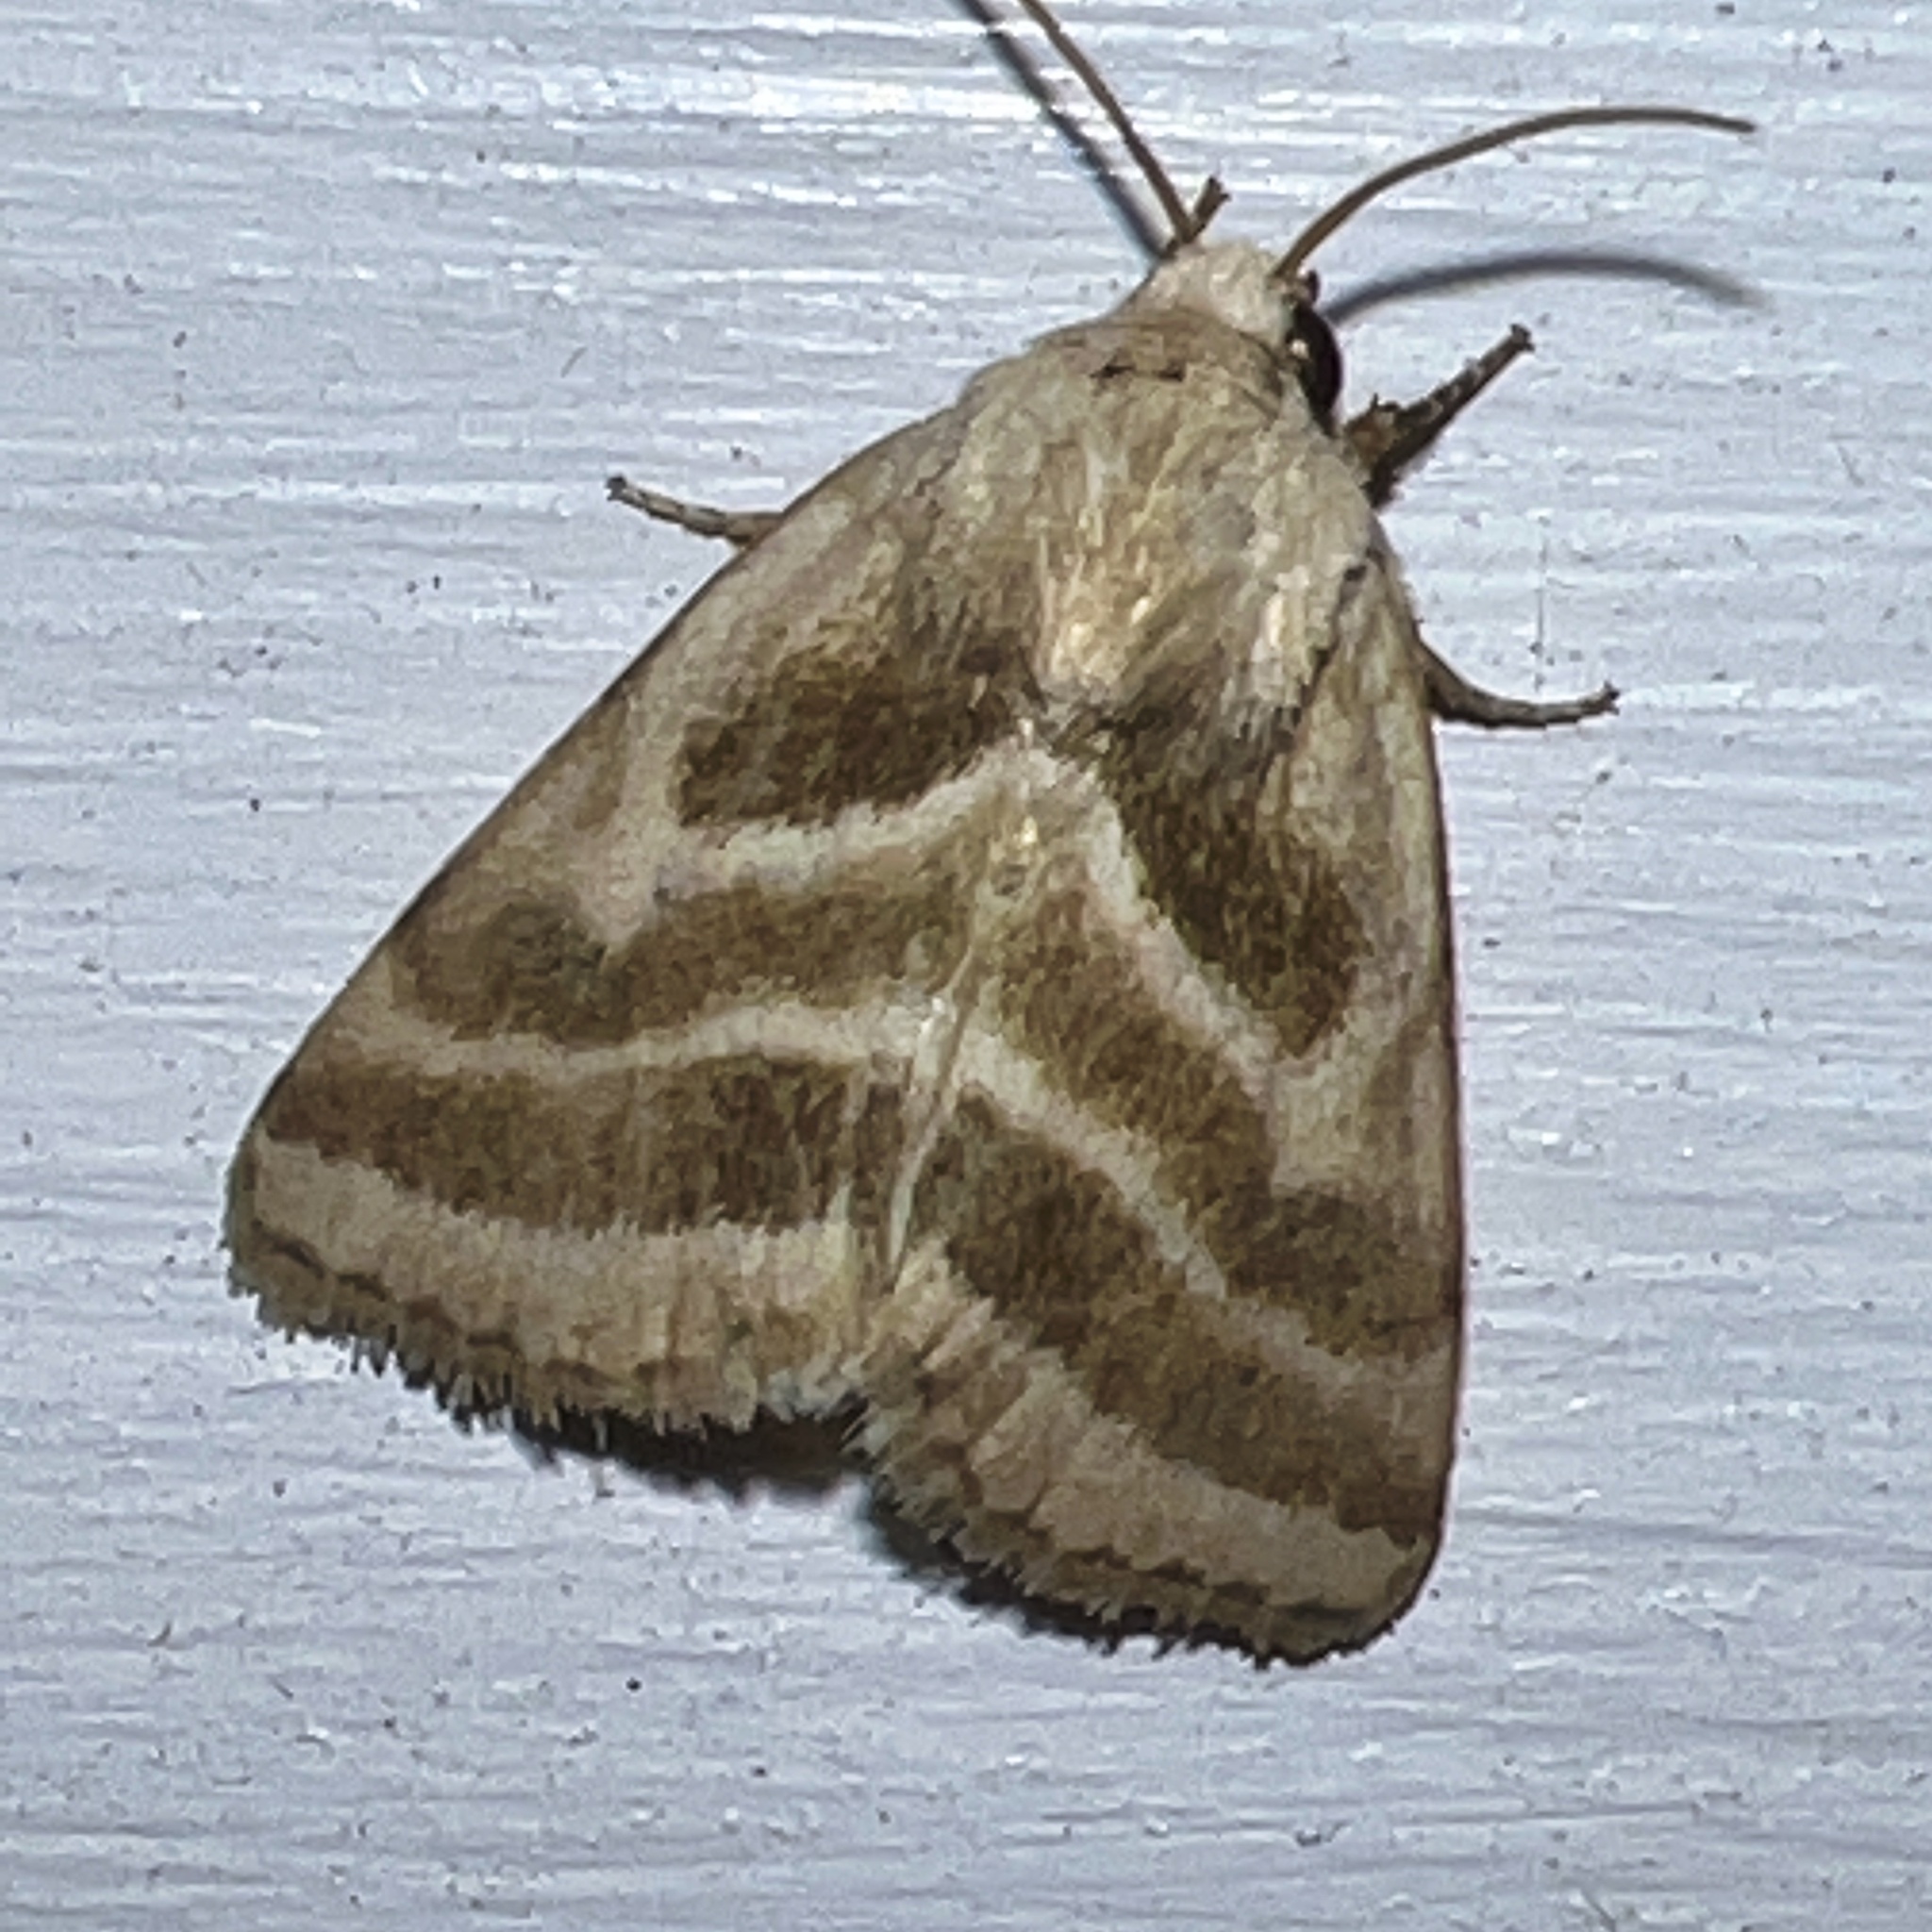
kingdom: Animalia
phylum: Arthropoda
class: Insecta
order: Lepidoptera
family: Noctuidae
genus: Schinia
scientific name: Schinia trifascia
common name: Three-lined flower moth
